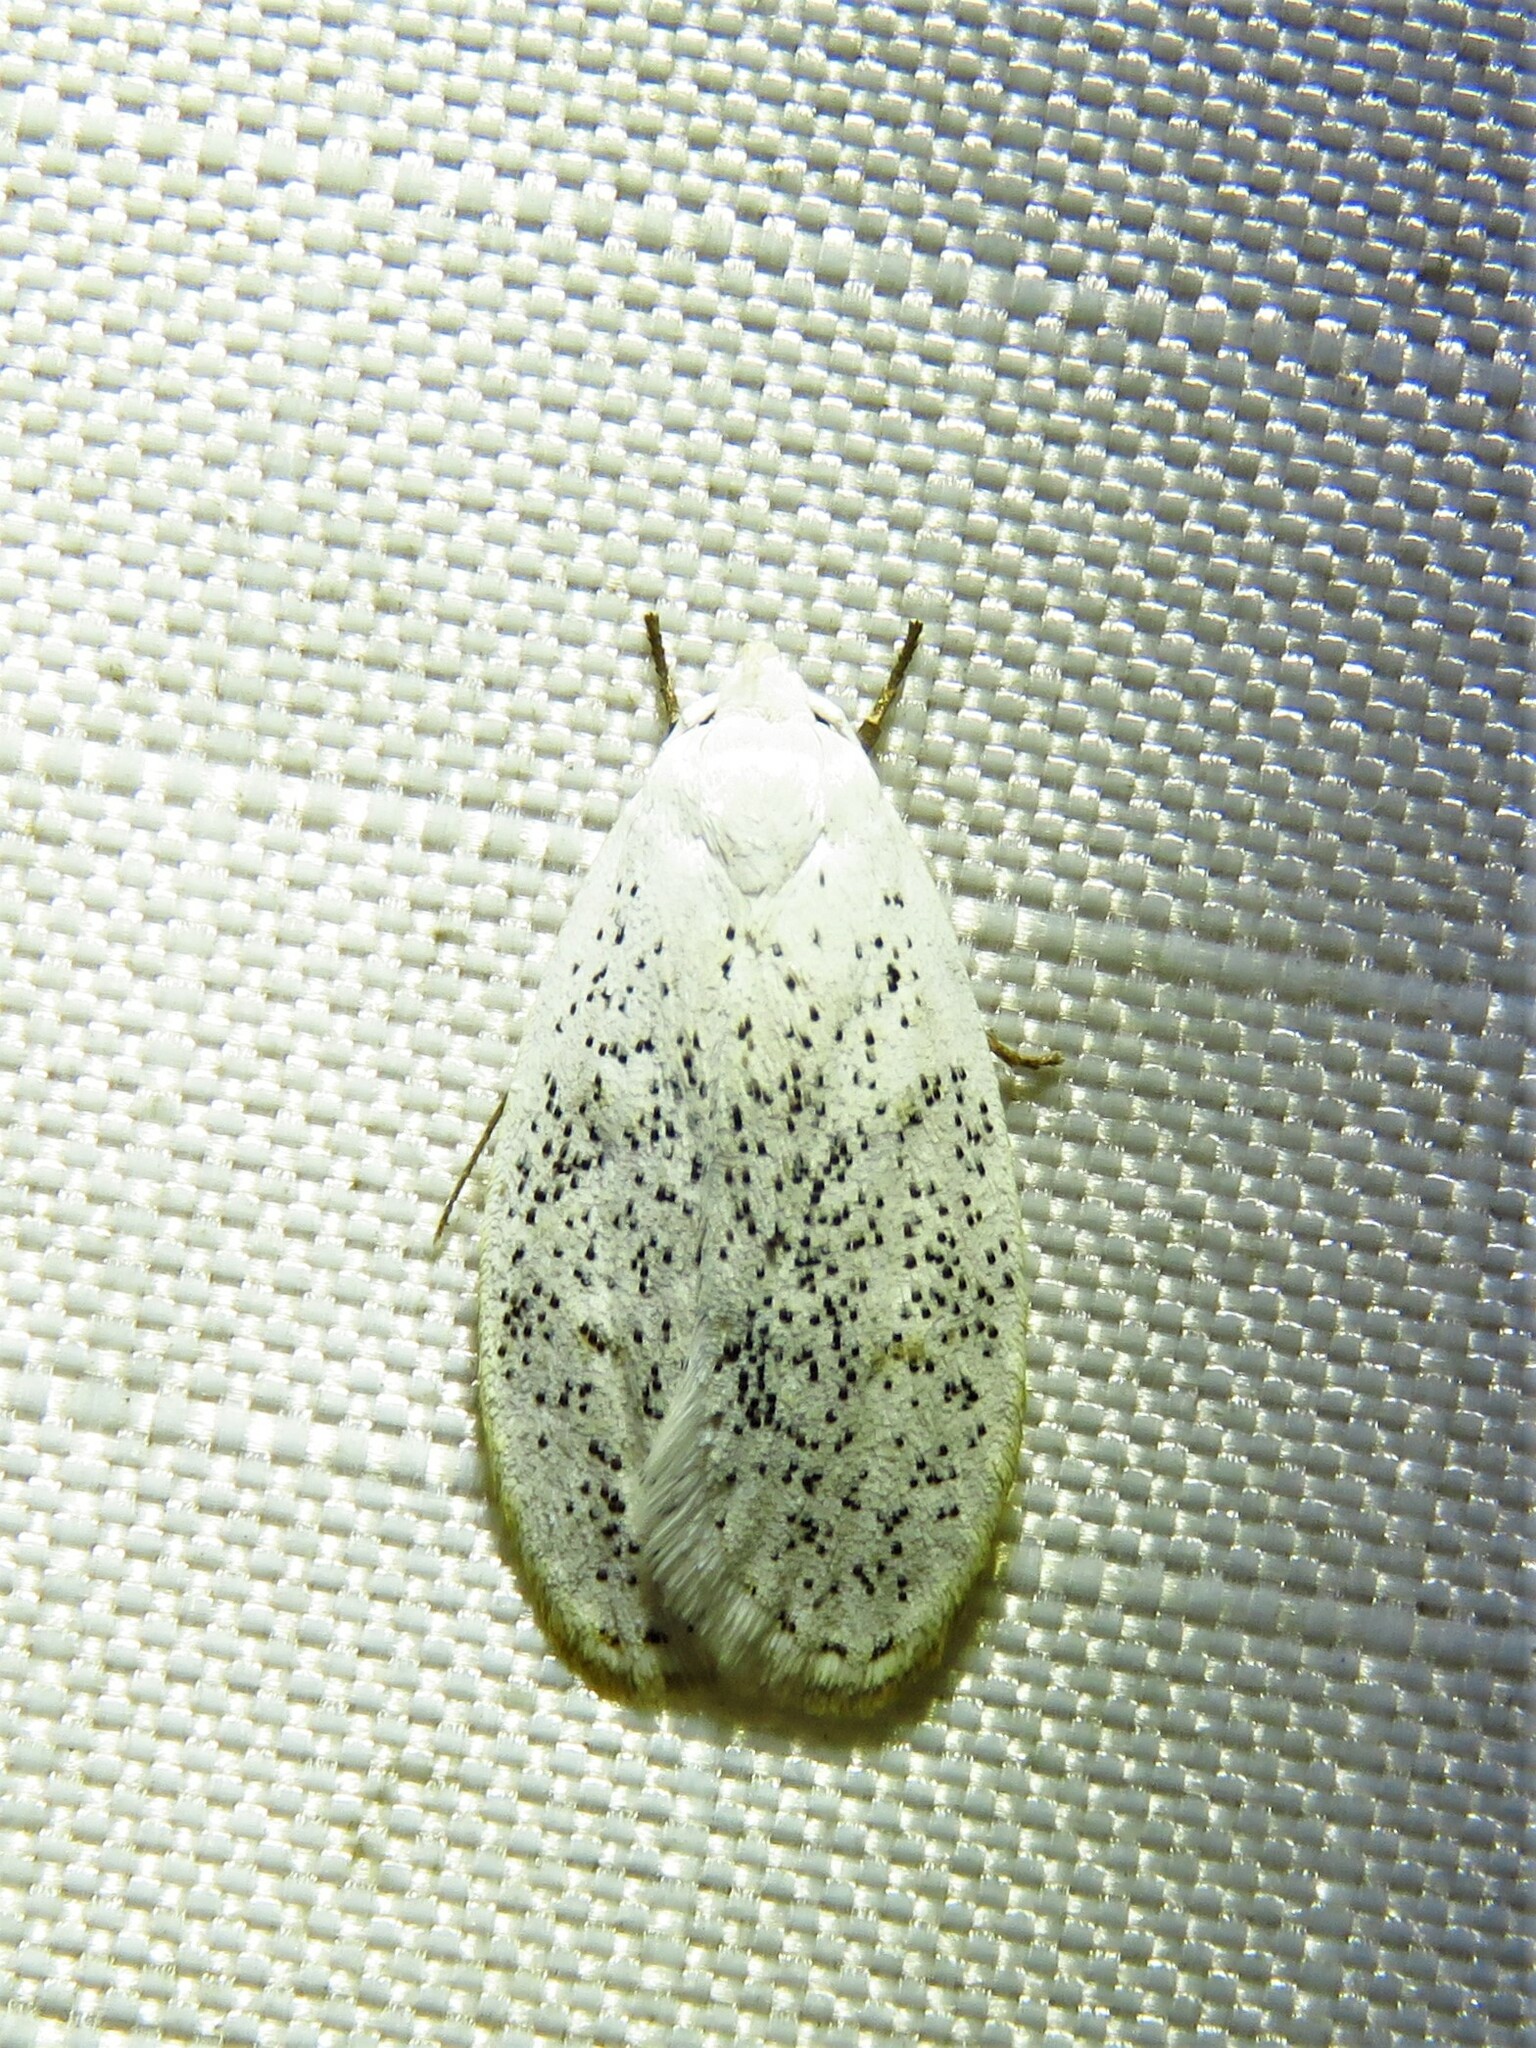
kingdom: Animalia
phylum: Arthropoda
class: Insecta
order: Lepidoptera
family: Peleopodidae
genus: Durrantia
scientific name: Durrantia piperatella
